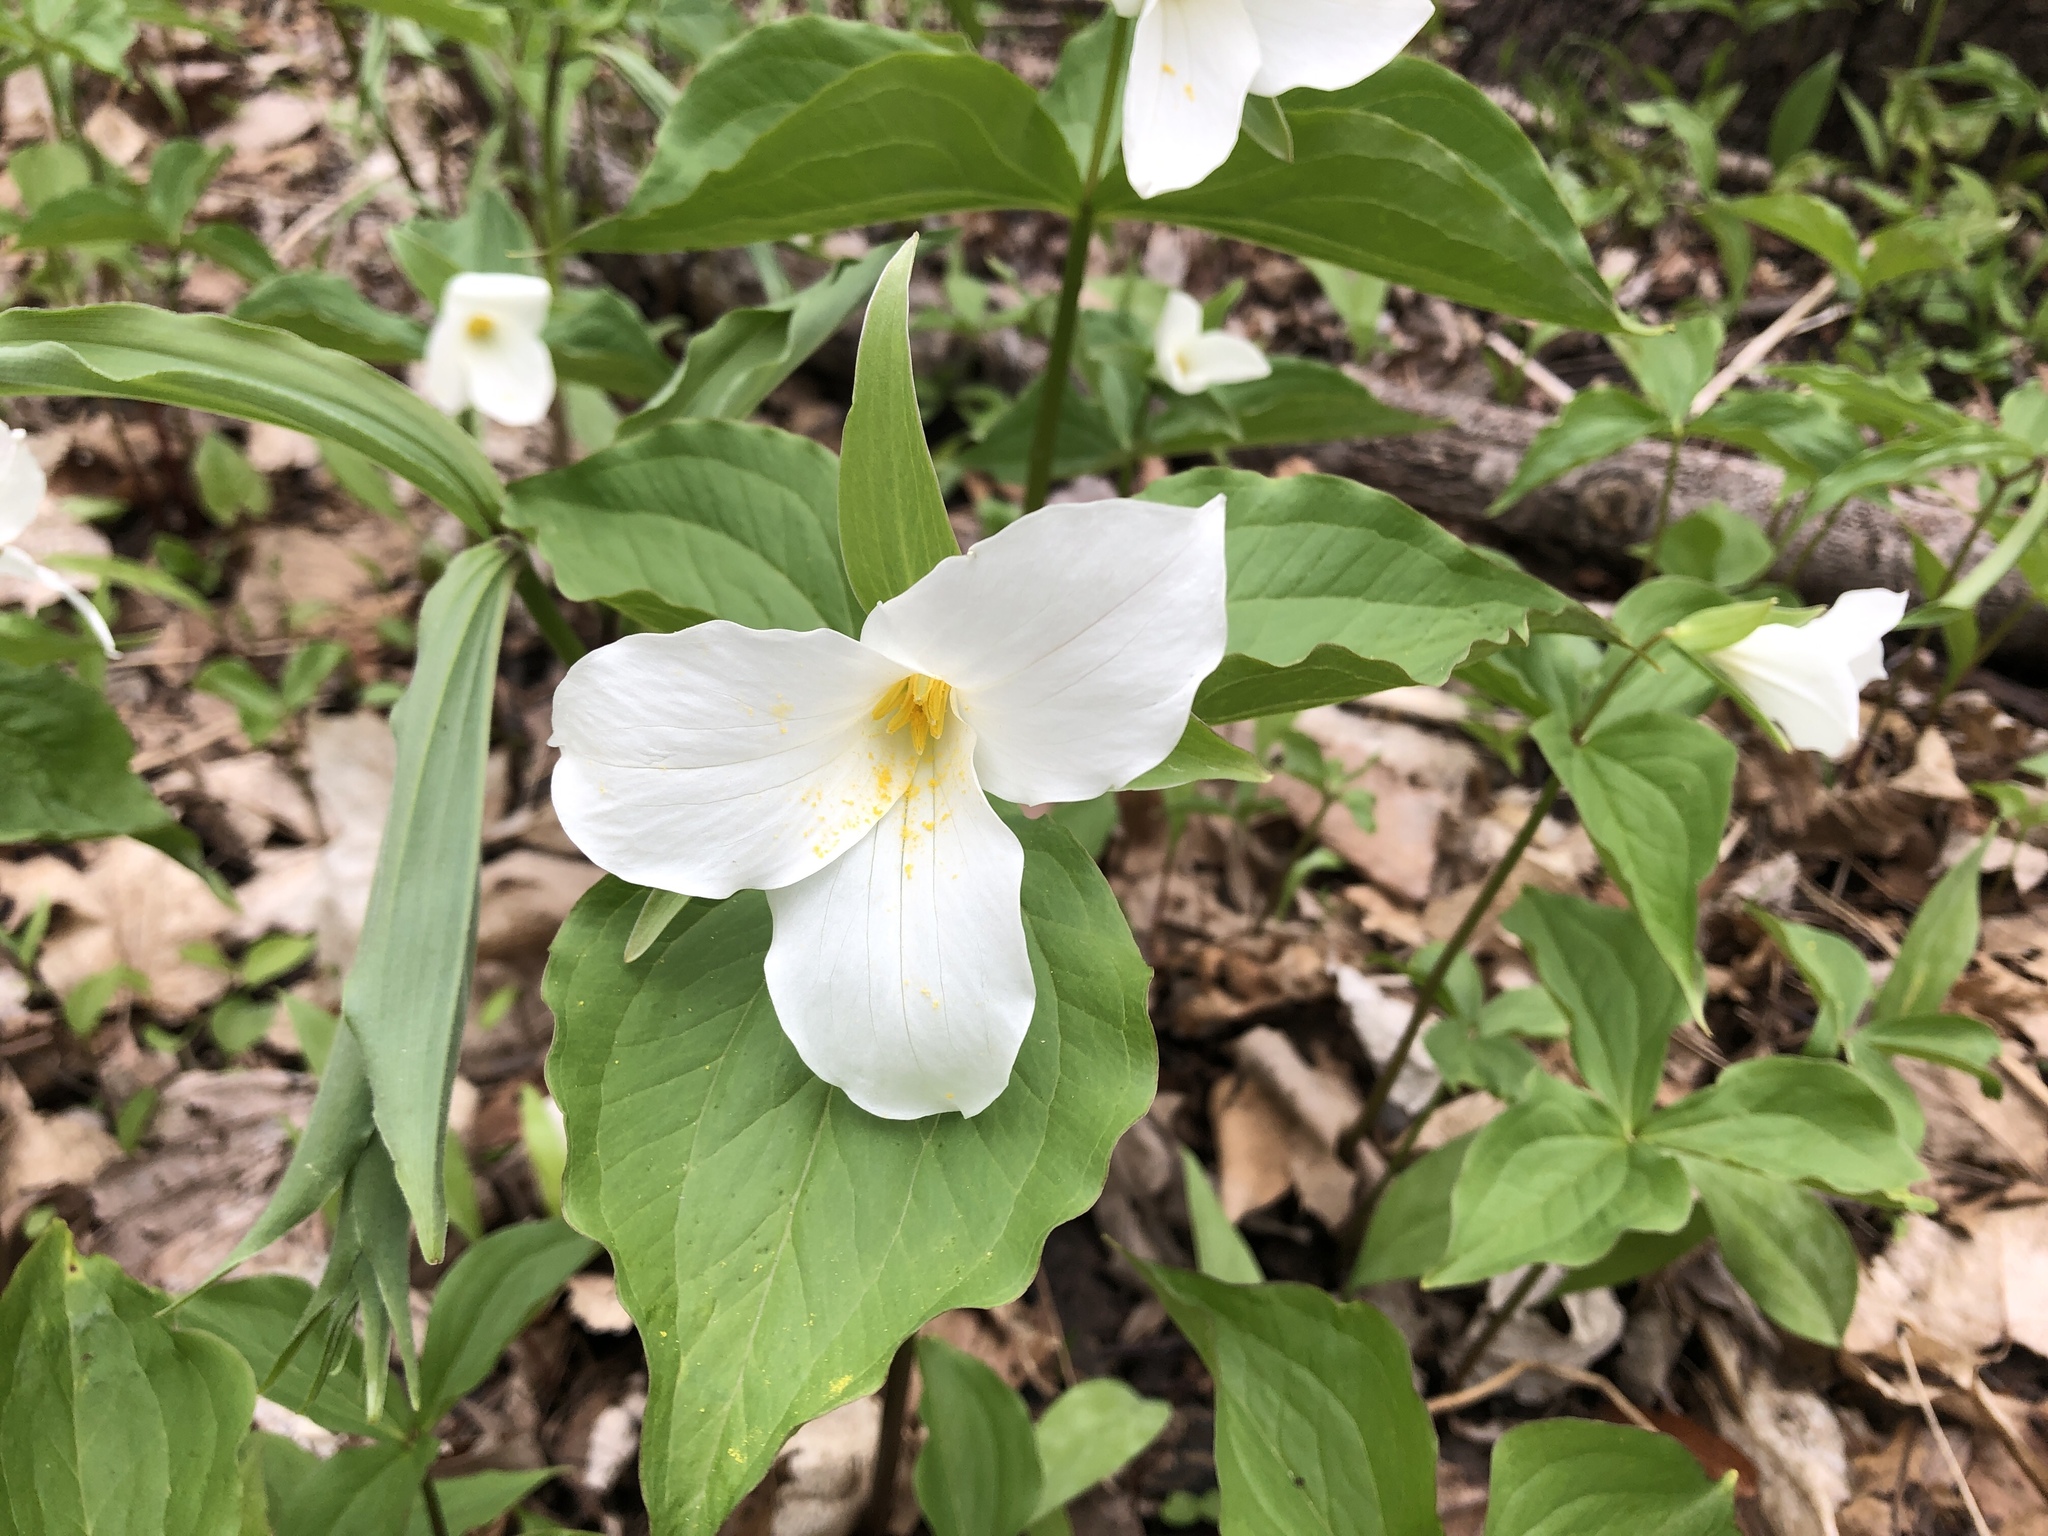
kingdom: Plantae
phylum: Tracheophyta
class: Liliopsida
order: Liliales
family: Melanthiaceae
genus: Trillium
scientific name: Trillium grandiflorum
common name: Great white trillium
